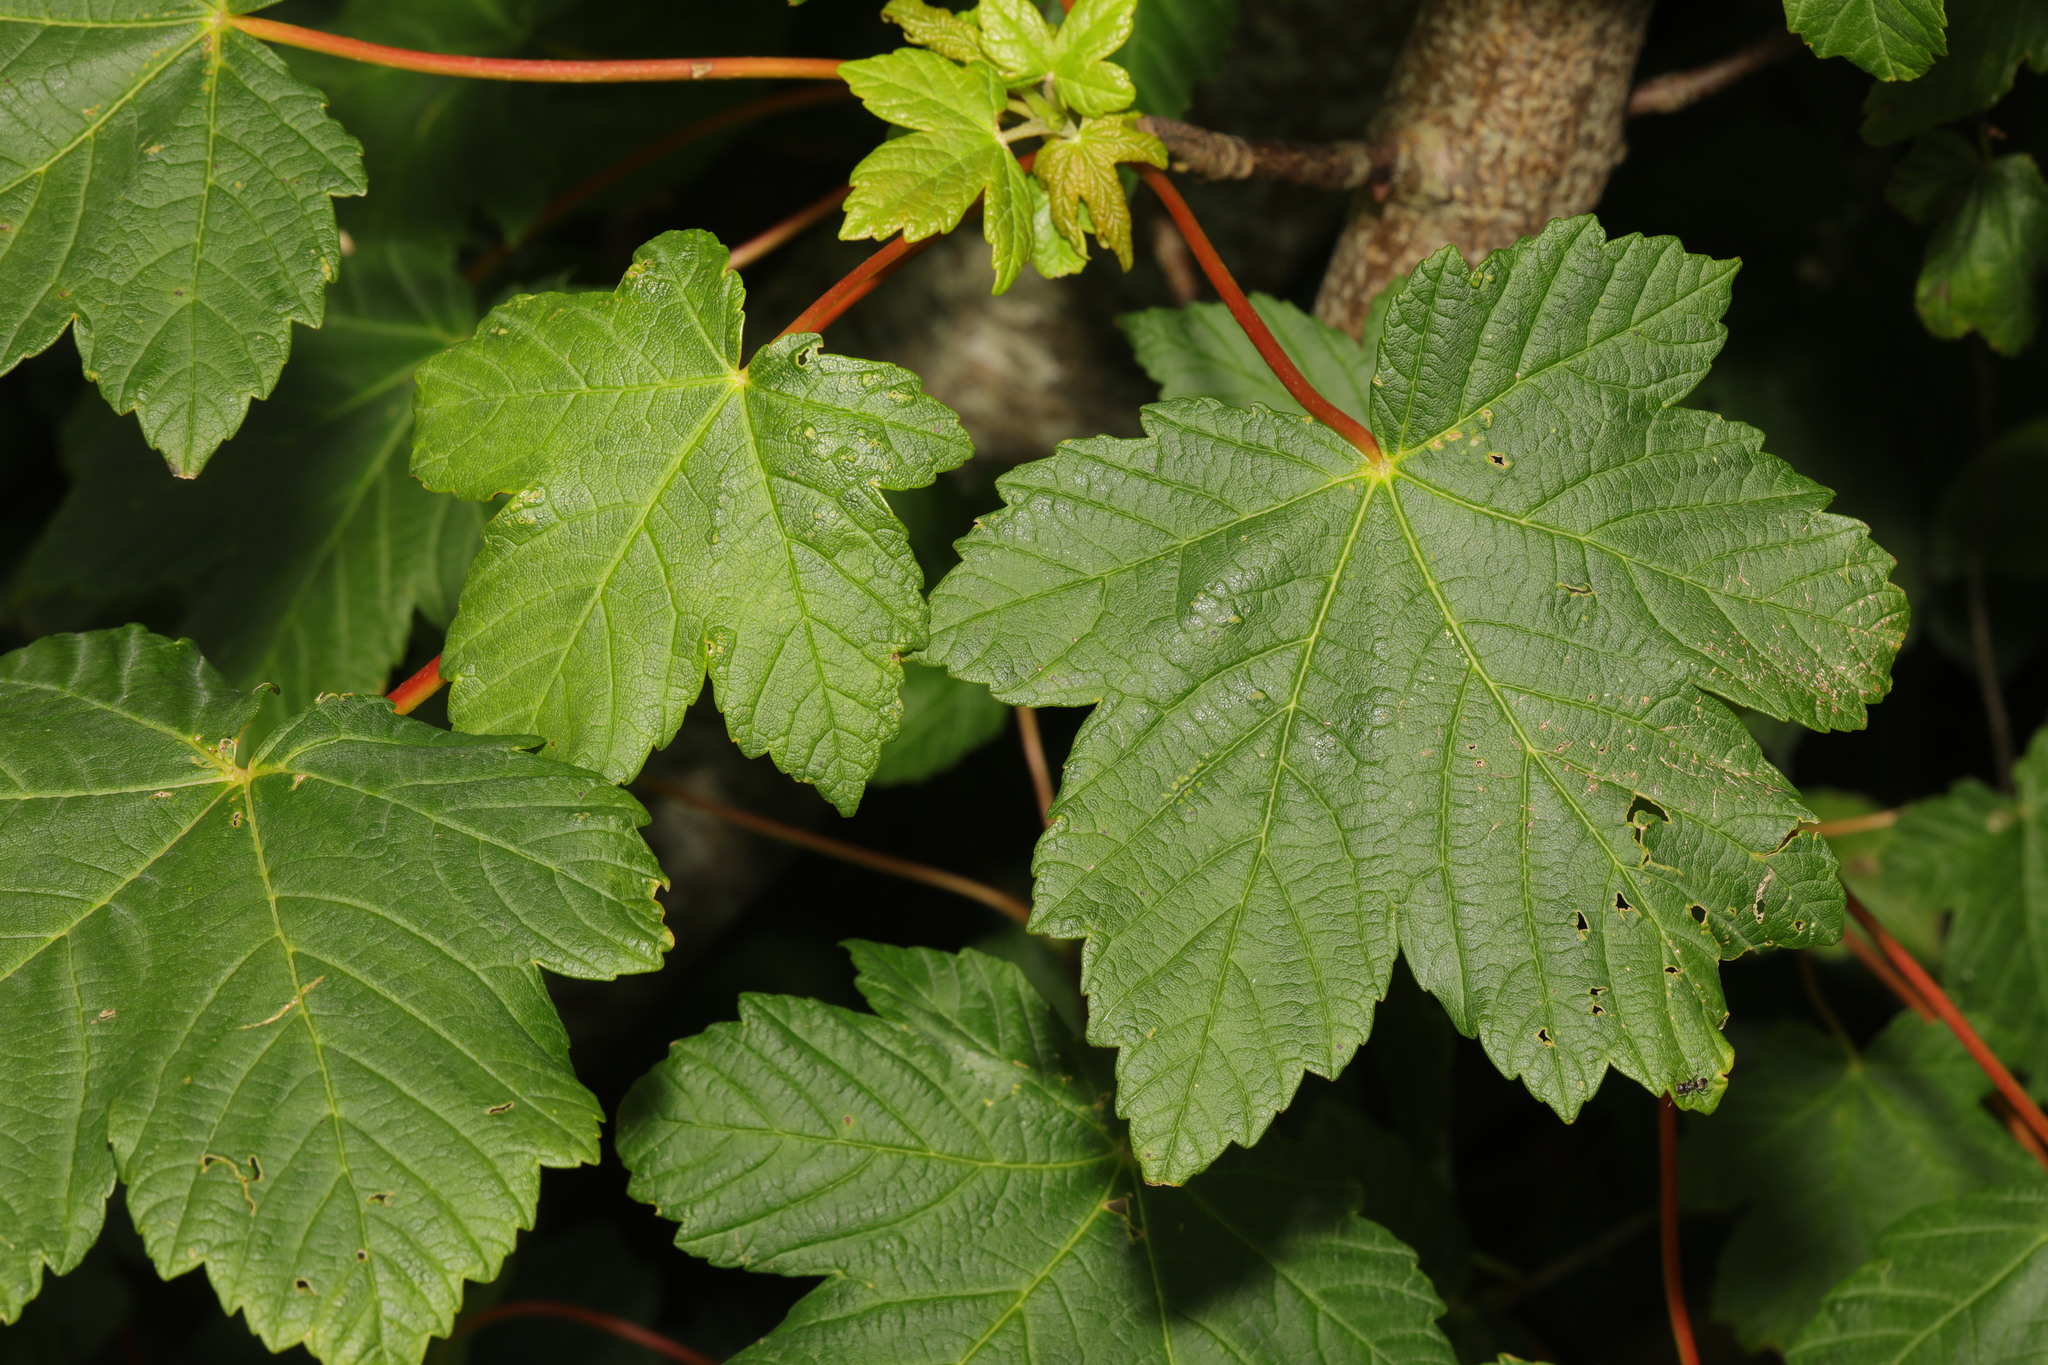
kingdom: Plantae
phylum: Tracheophyta
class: Magnoliopsida
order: Sapindales
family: Sapindaceae
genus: Acer
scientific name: Acer pseudoplatanus
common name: Sycamore
